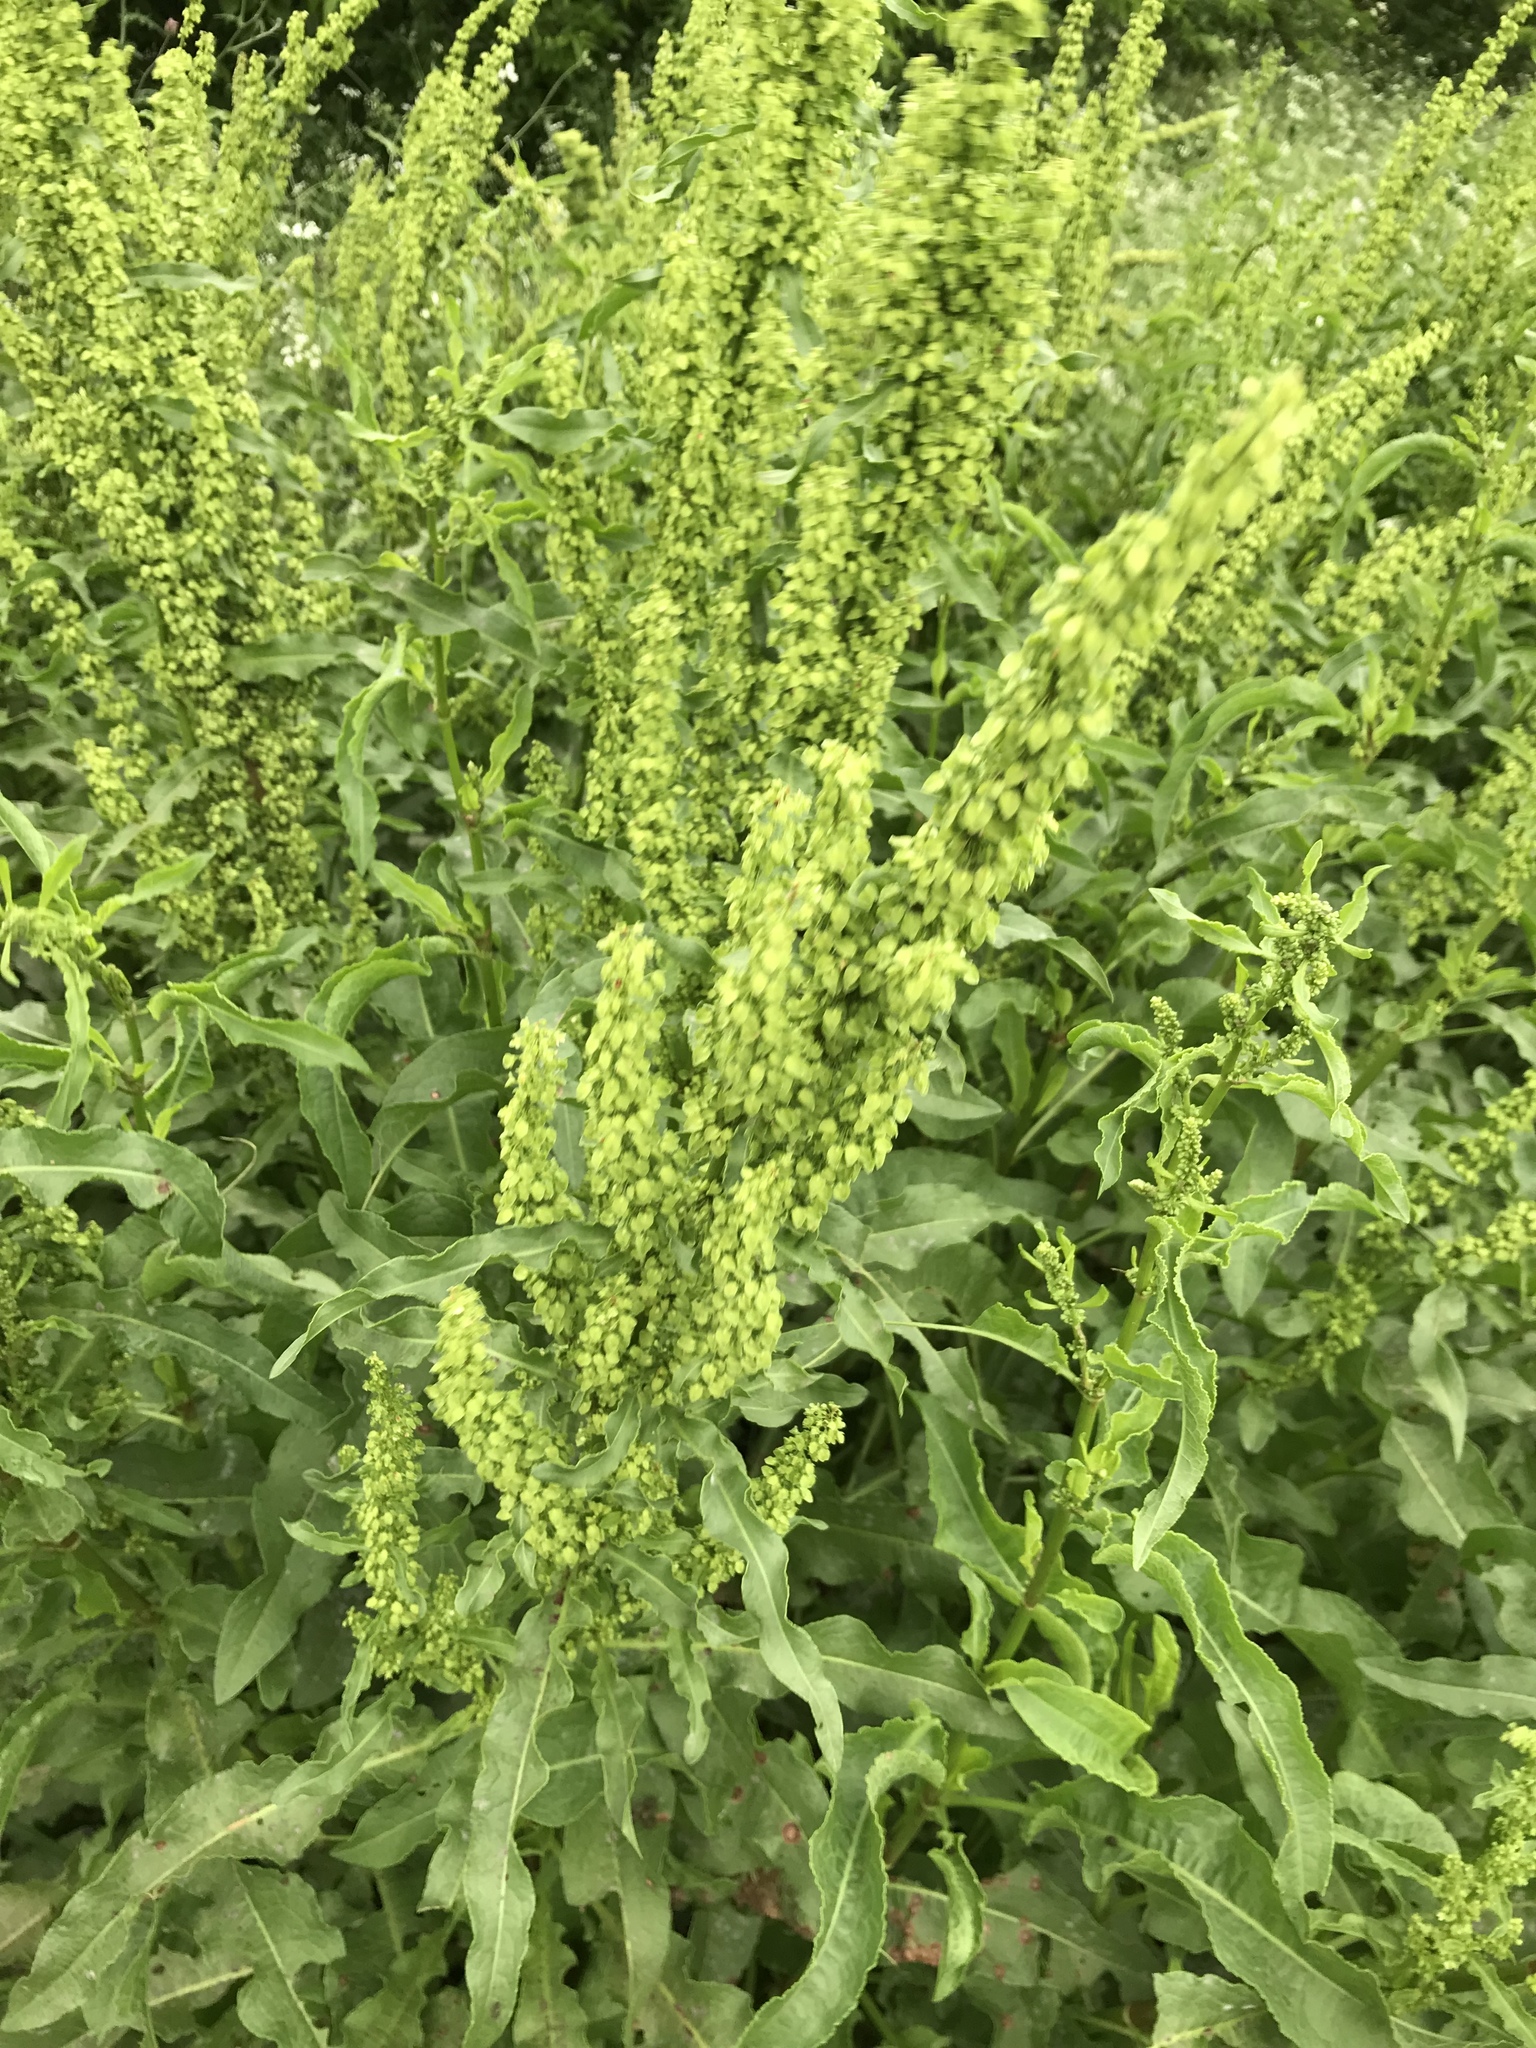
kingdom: Plantae
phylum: Tracheophyta
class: Magnoliopsida
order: Caryophyllales
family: Polygonaceae
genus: Rumex
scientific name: Rumex crispus
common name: Curled dock
